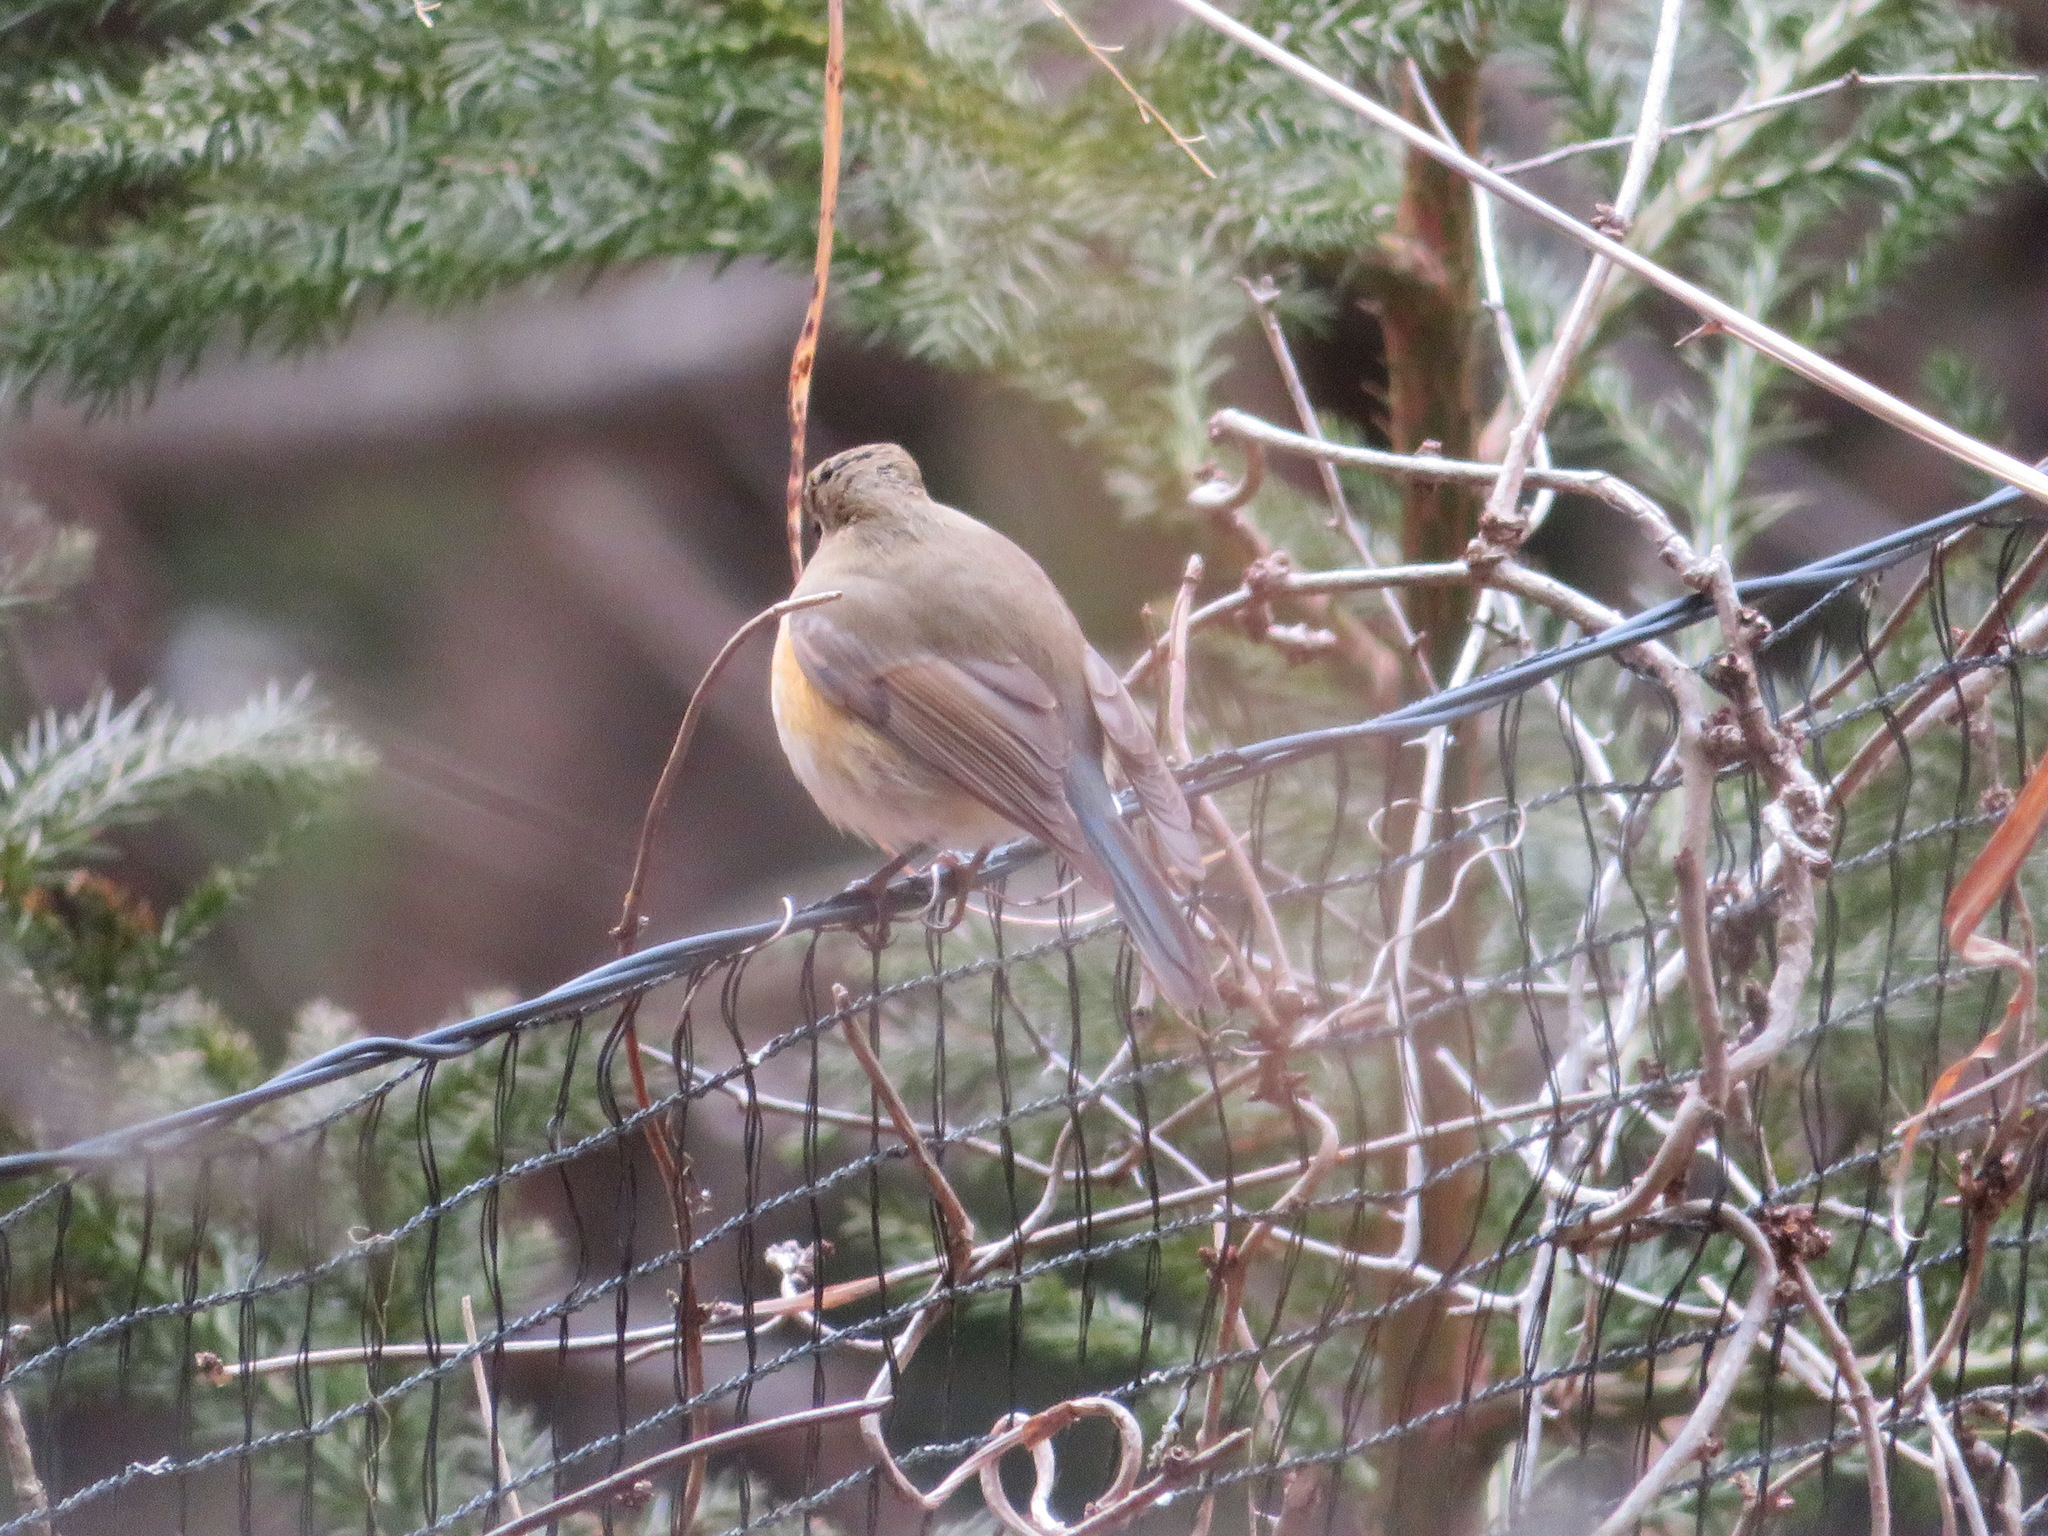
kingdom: Animalia
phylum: Chordata
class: Aves
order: Passeriformes
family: Muscicapidae
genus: Tarsiger
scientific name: Tarsiger cyanurus
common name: Red-flanked bluetail
